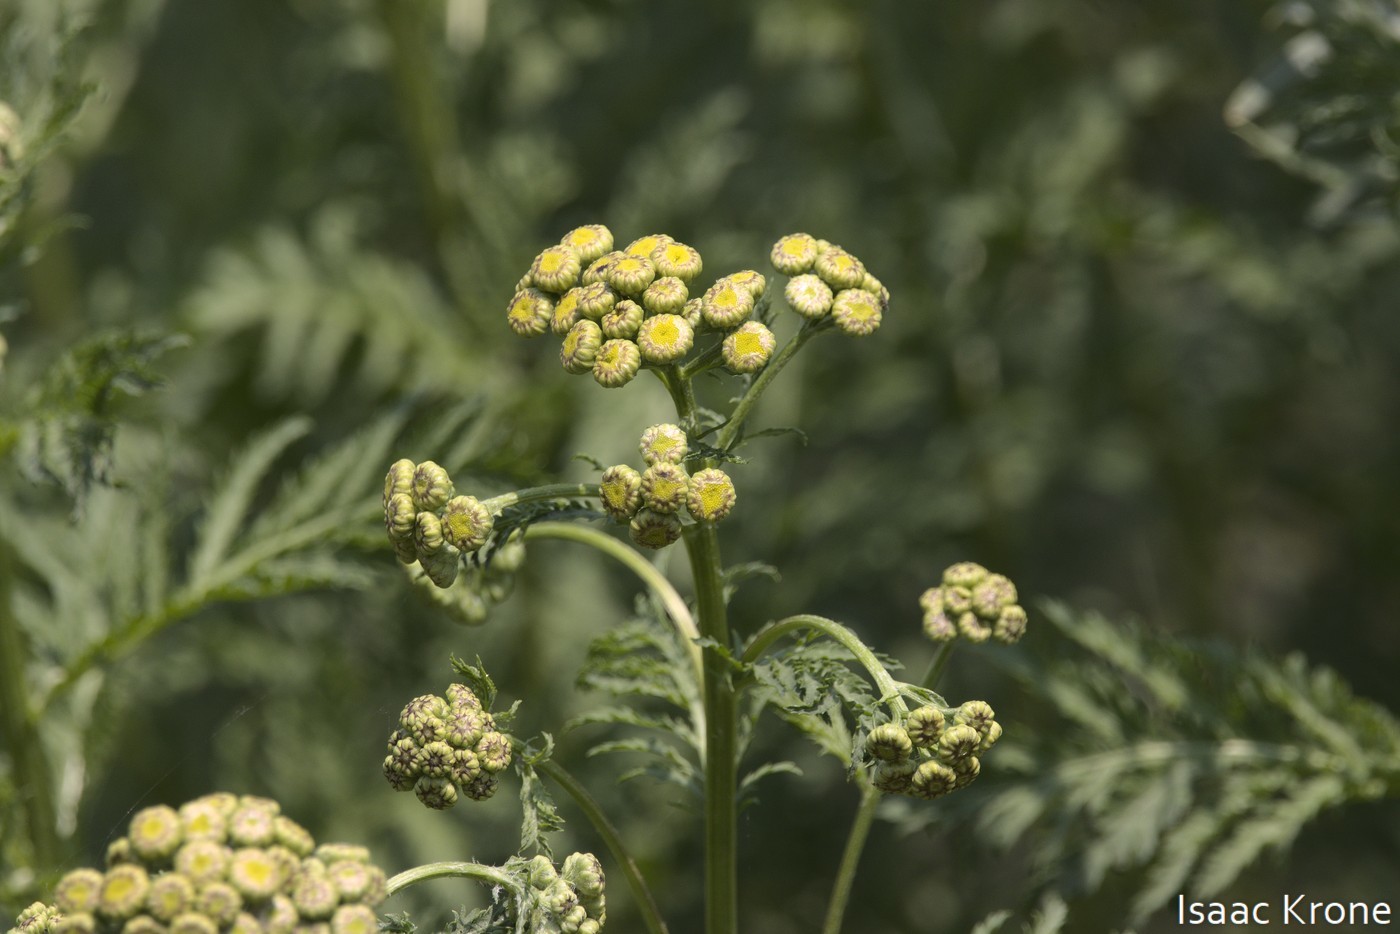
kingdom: Plantae
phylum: Tracheophyta
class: Magnoliopsida
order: Asterales
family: Asteraceae
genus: Tanacetum
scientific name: Tanacetum vulgare
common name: Common tansy
